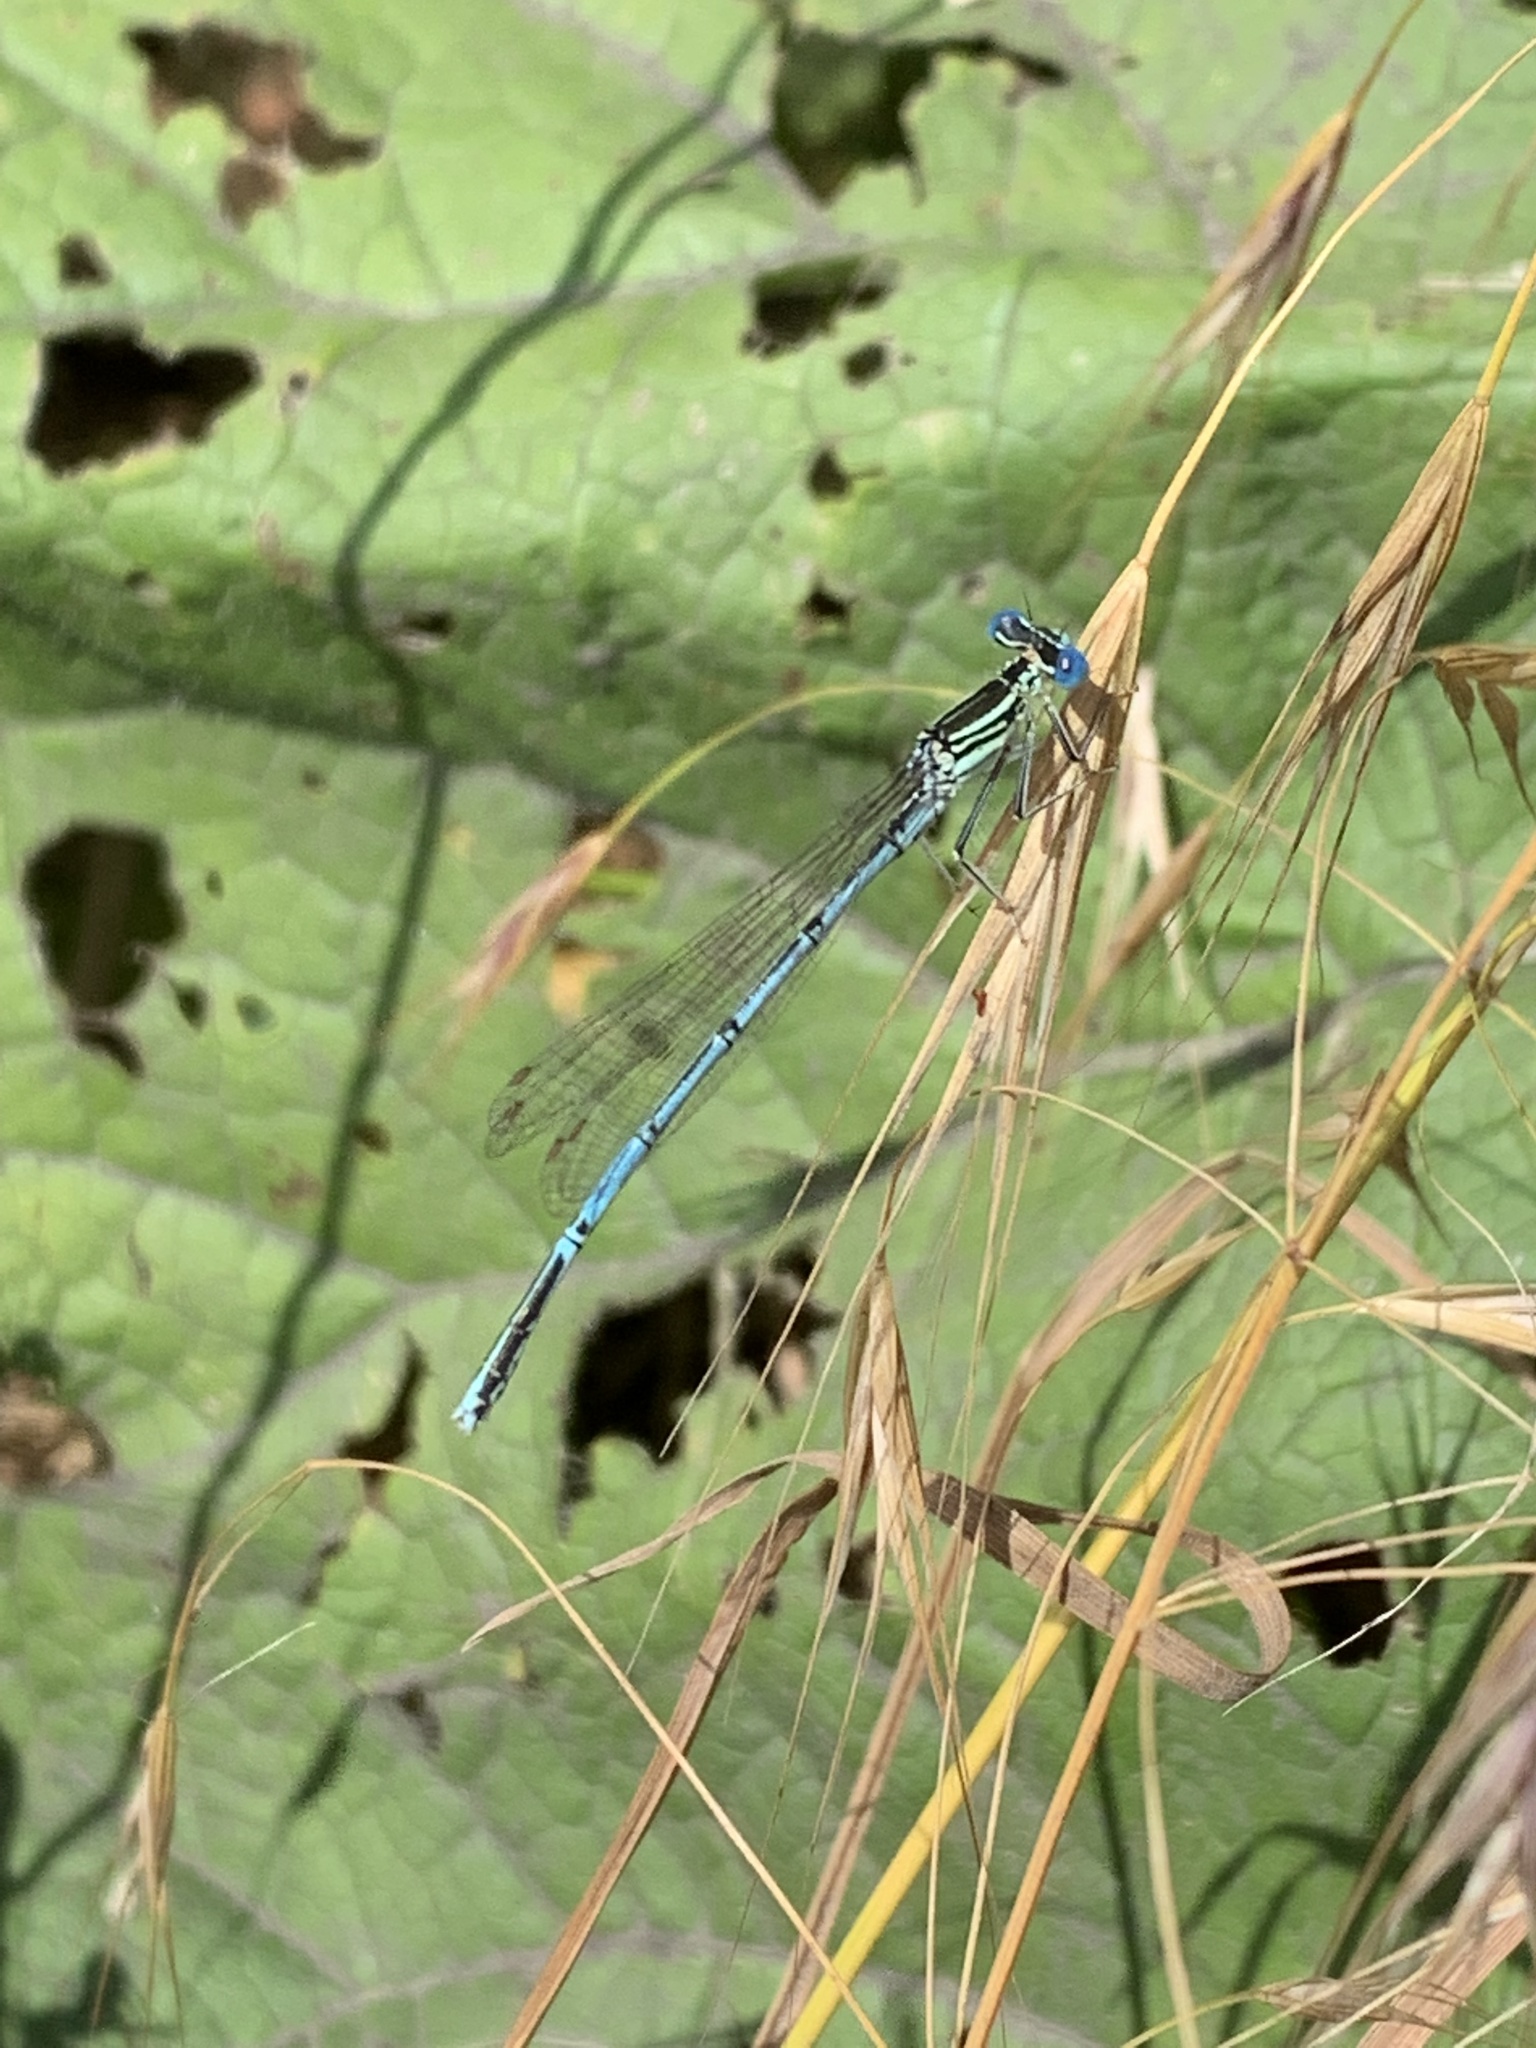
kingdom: Animalia
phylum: Arthropoda
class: Insecta
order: Odonata
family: Platycnemididae
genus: Platycnemis
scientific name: Platycnemis pennipes
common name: White-legged damselfly
